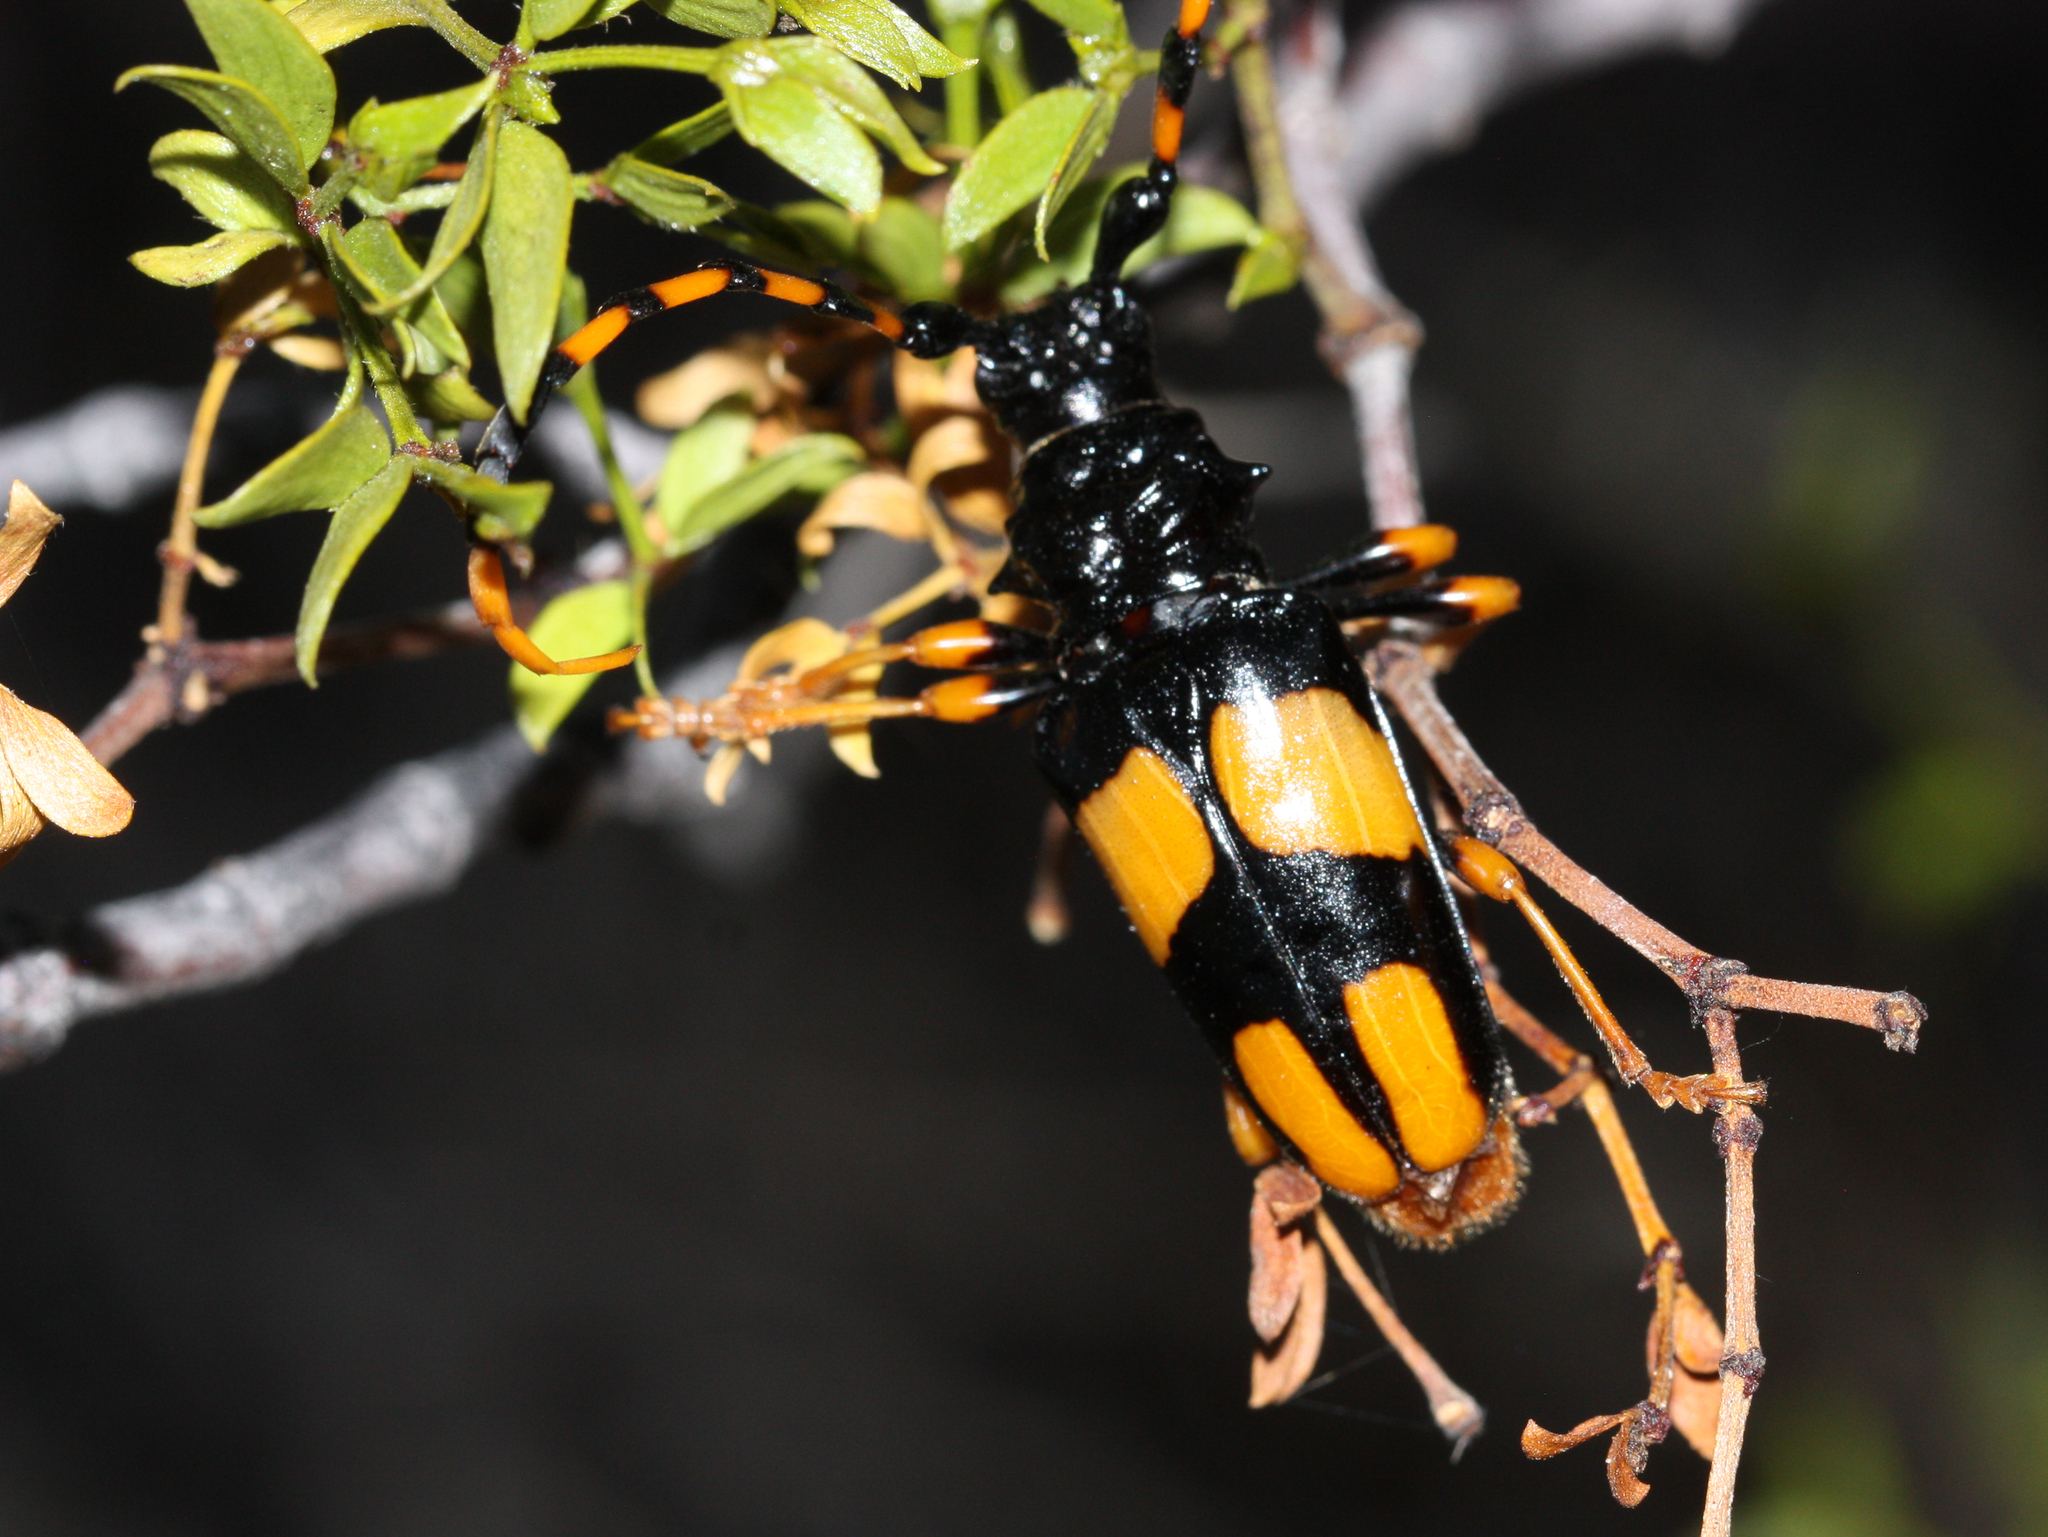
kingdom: Animalia
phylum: Arthropoda
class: Insecta
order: Coleoptera
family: Cerambycidae
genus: Trachyderes
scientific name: Trachyderes mandibularis
